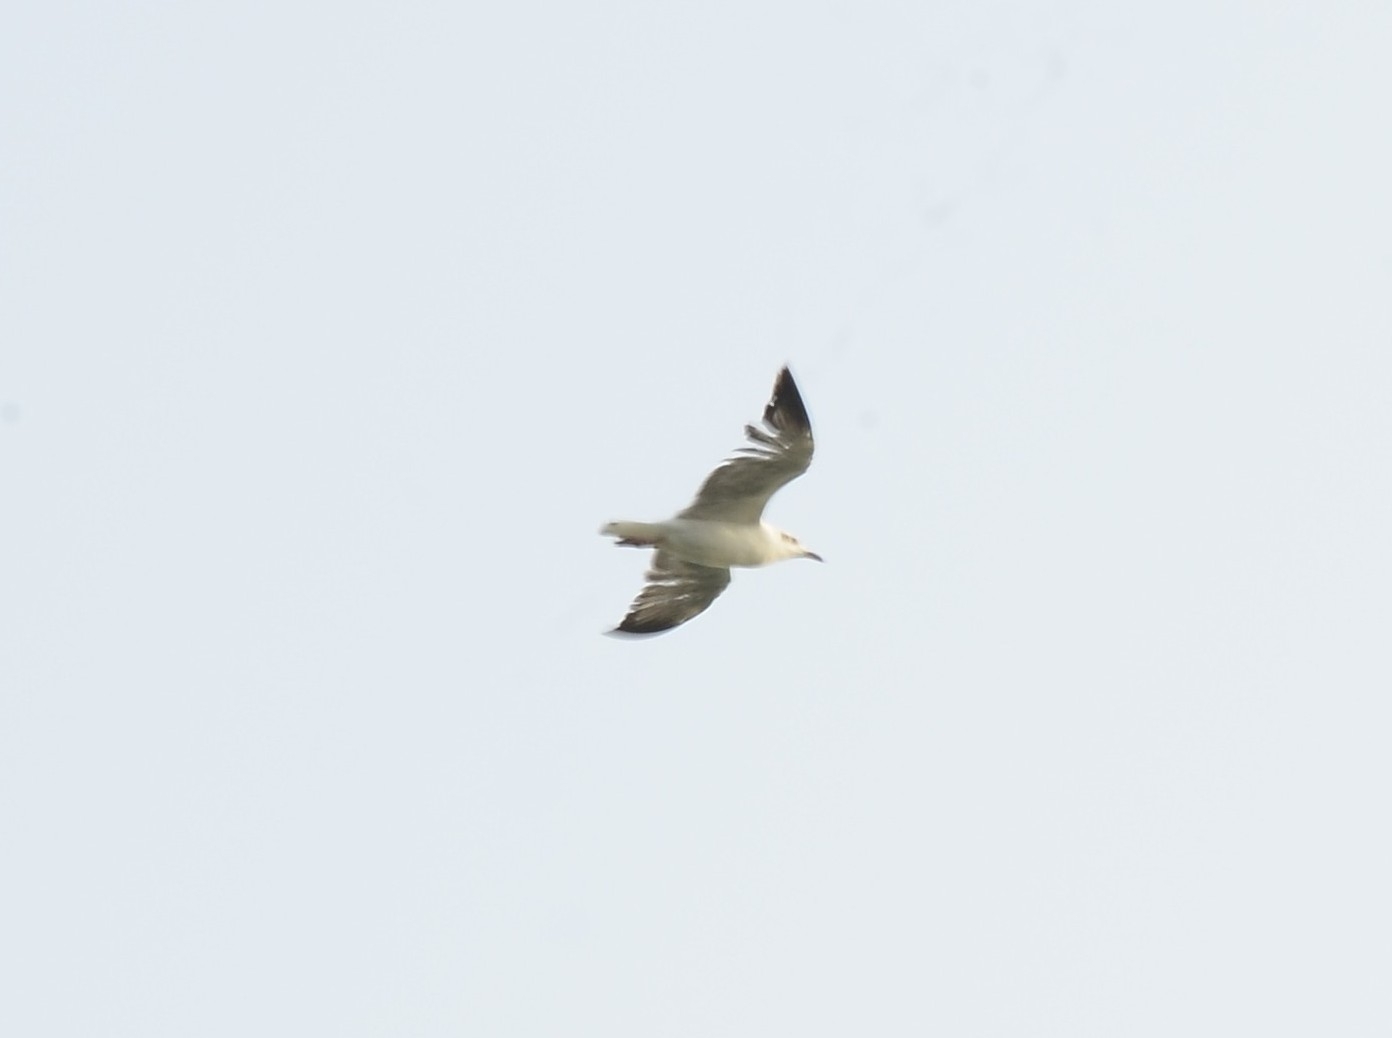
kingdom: Animalia
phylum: Chordata
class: Aves
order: Charadriiformes
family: Laridae
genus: Chroicocephalus
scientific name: Chroicocephalus brunnicephalus
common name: Brown-headed gull
